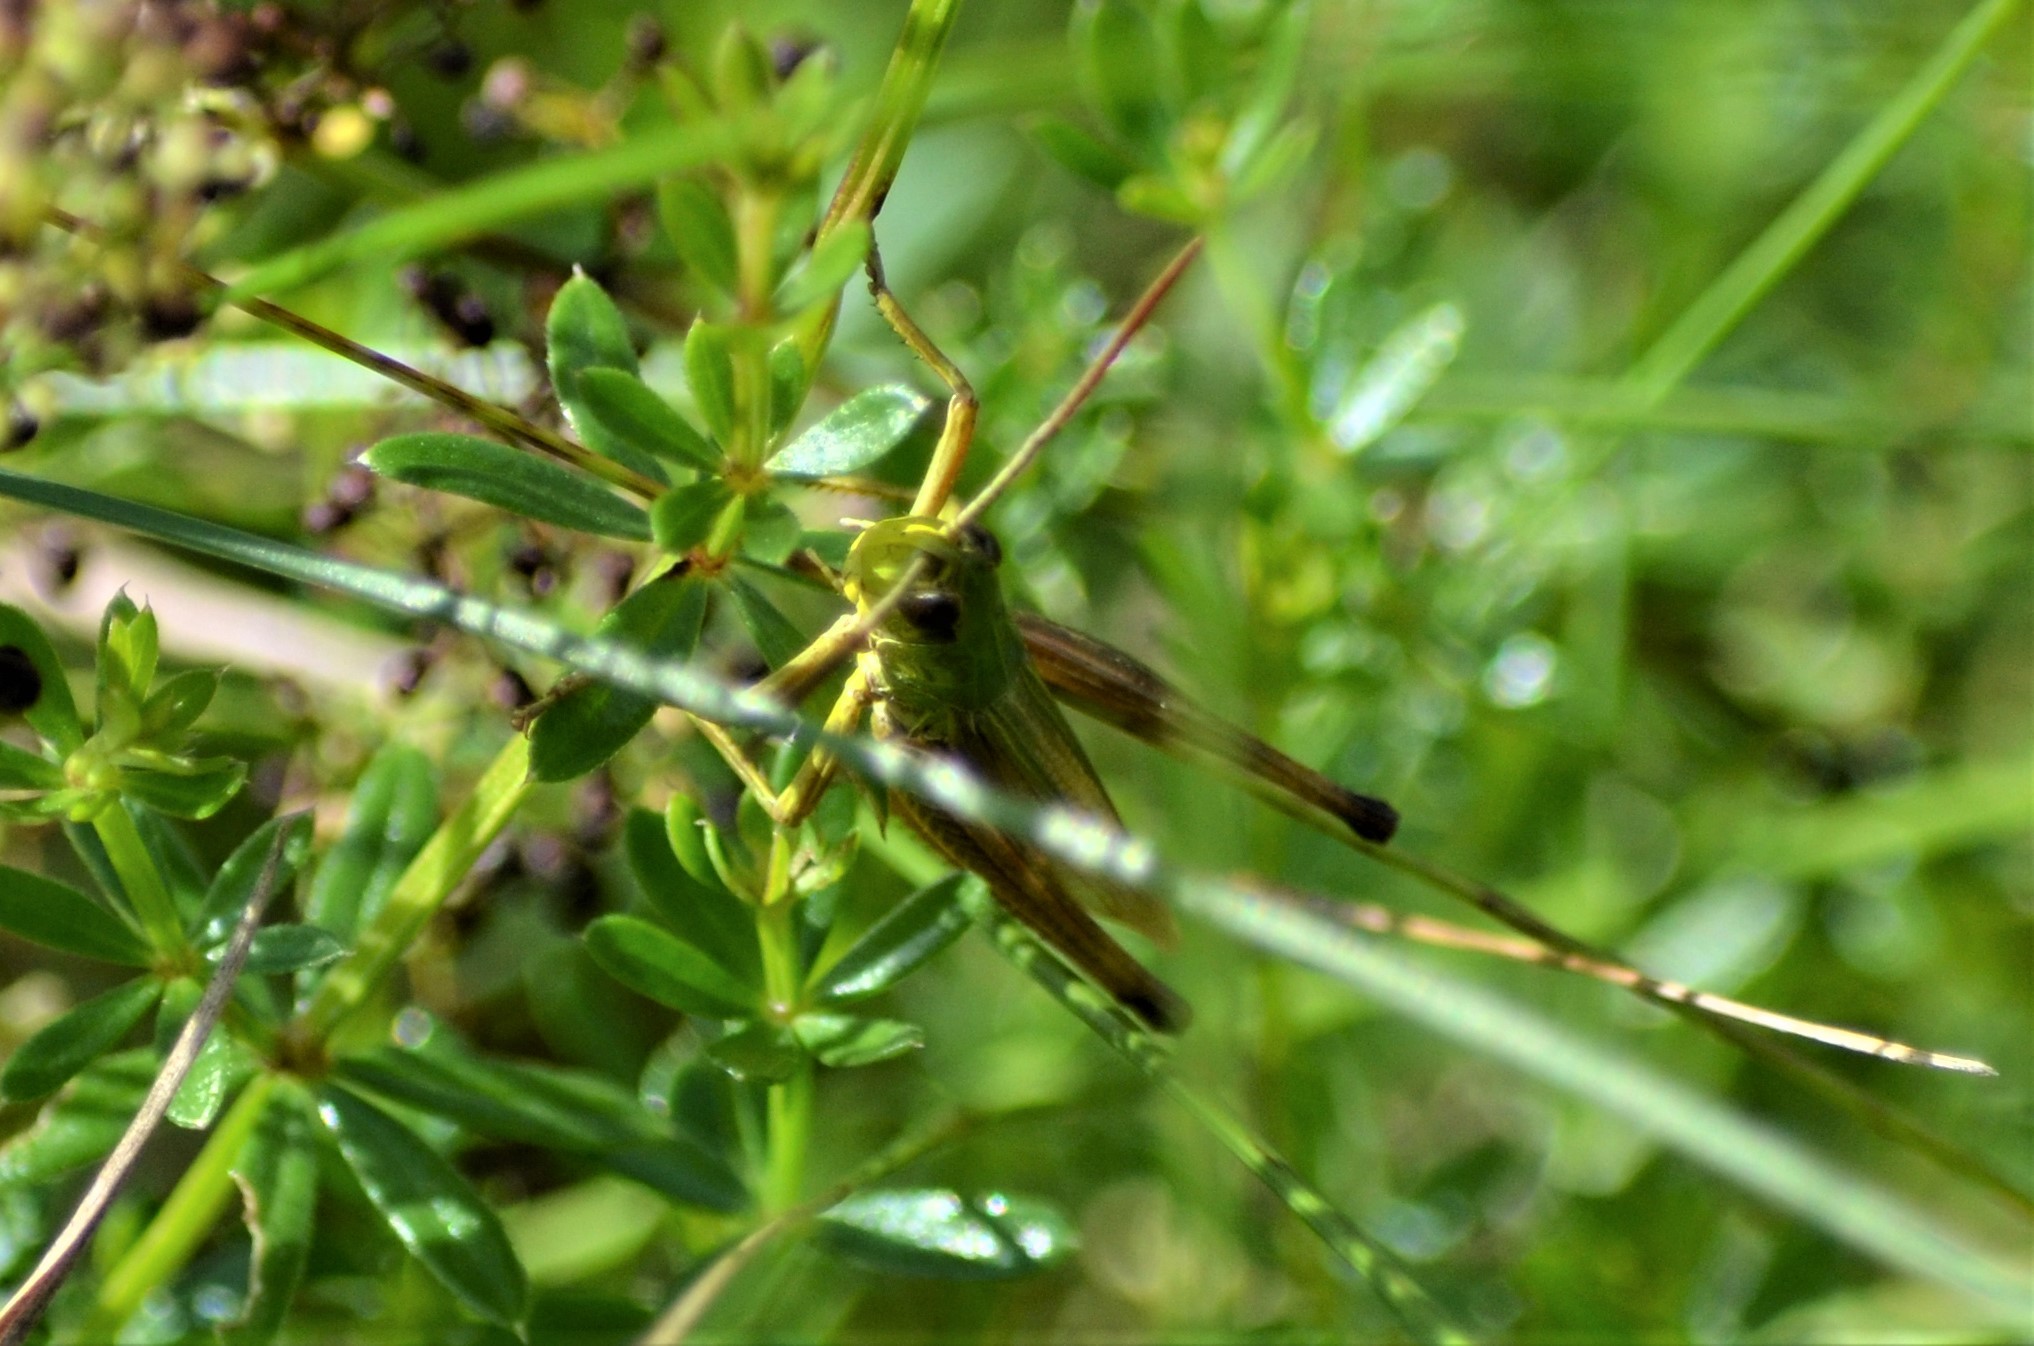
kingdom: Animalia
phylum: Arthropoda
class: Insecta
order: Orthoptera
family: Acrididae
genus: Pseudochorthippus
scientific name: Pseudochorthippus parallelus
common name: Meadow grasshopper
